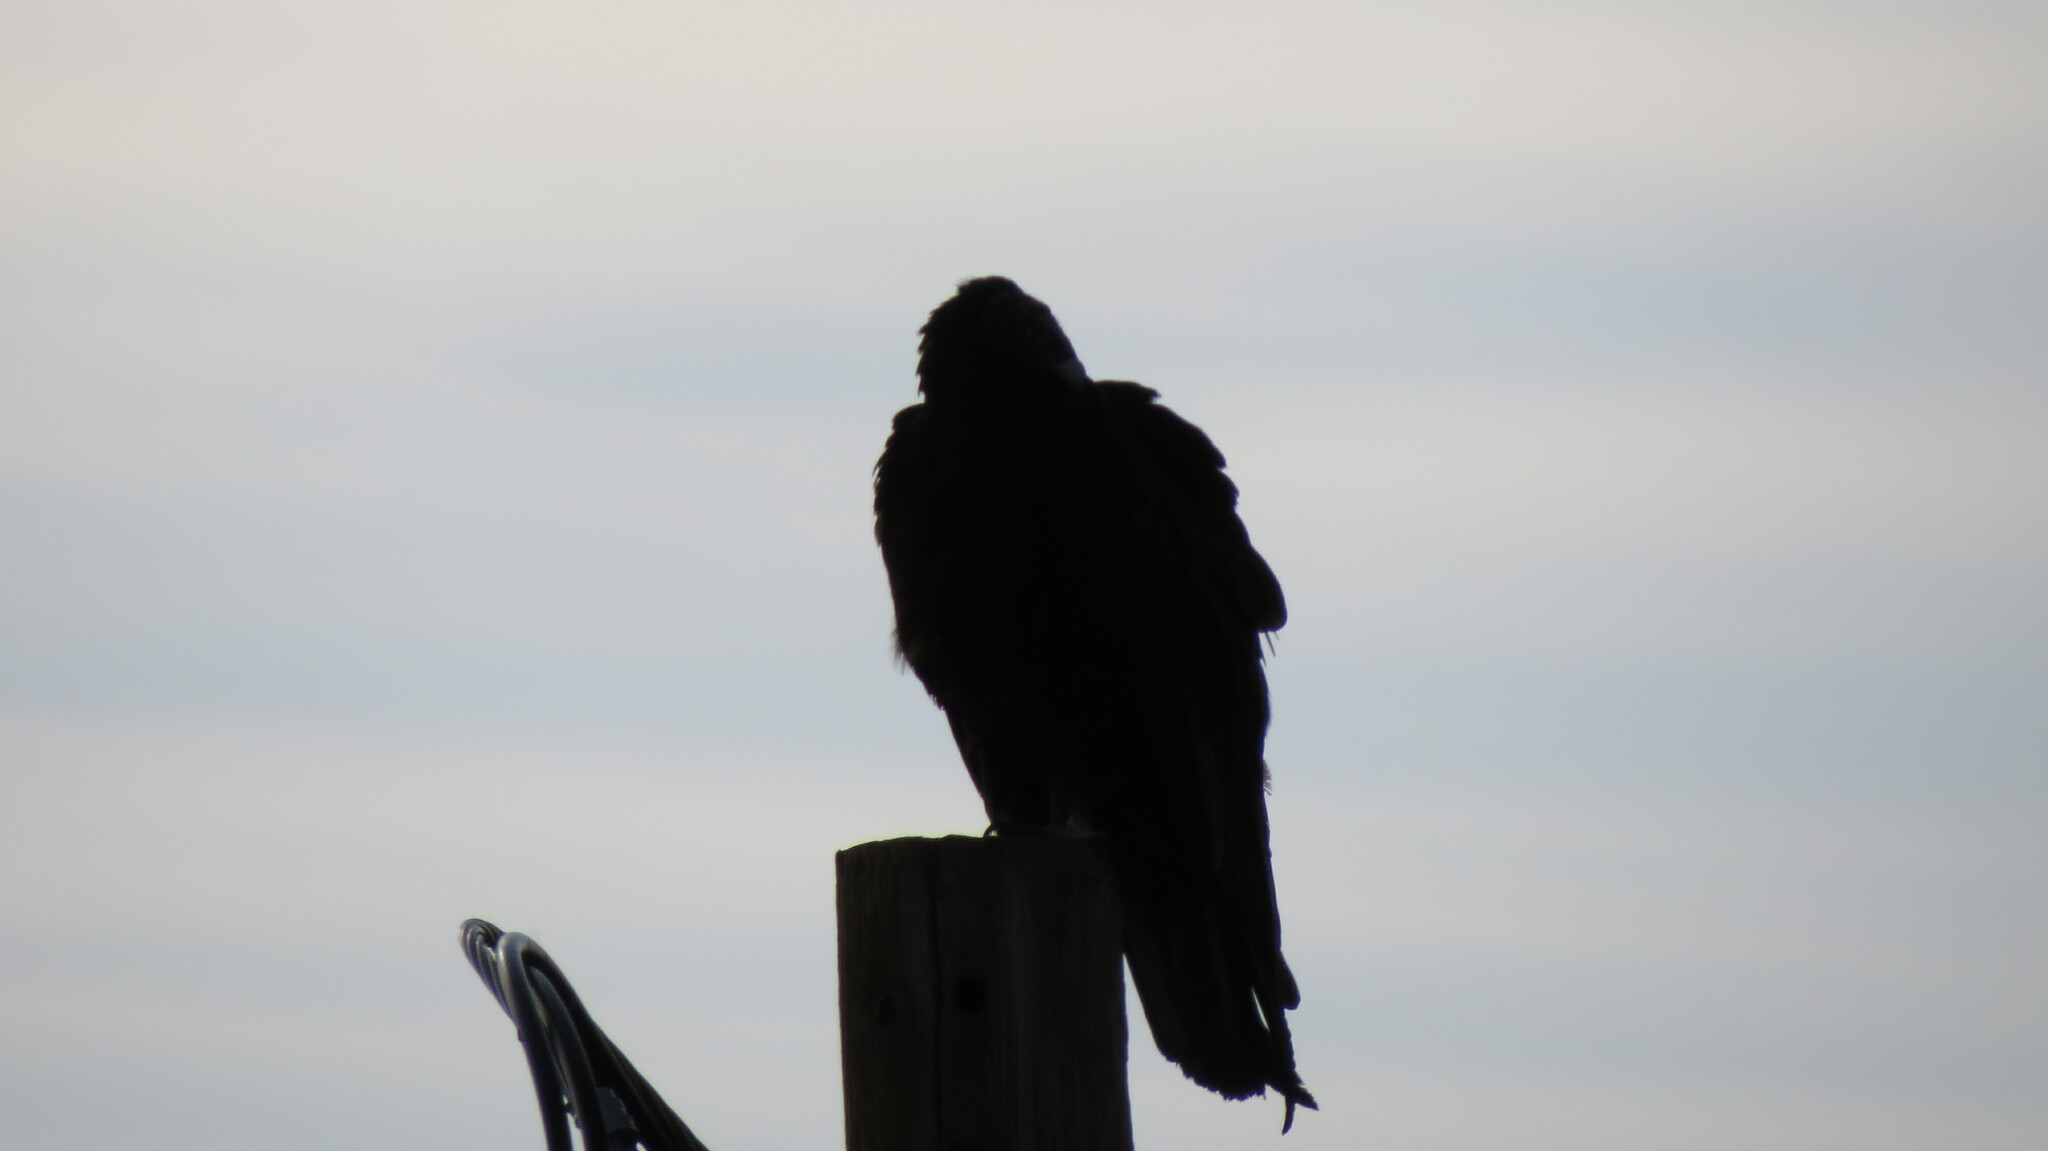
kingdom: Animalia
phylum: Chordata
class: Aves
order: Accipitriformes
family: Cathartidae
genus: Cathartes
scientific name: Cathartes aura
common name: Turkey vulture
